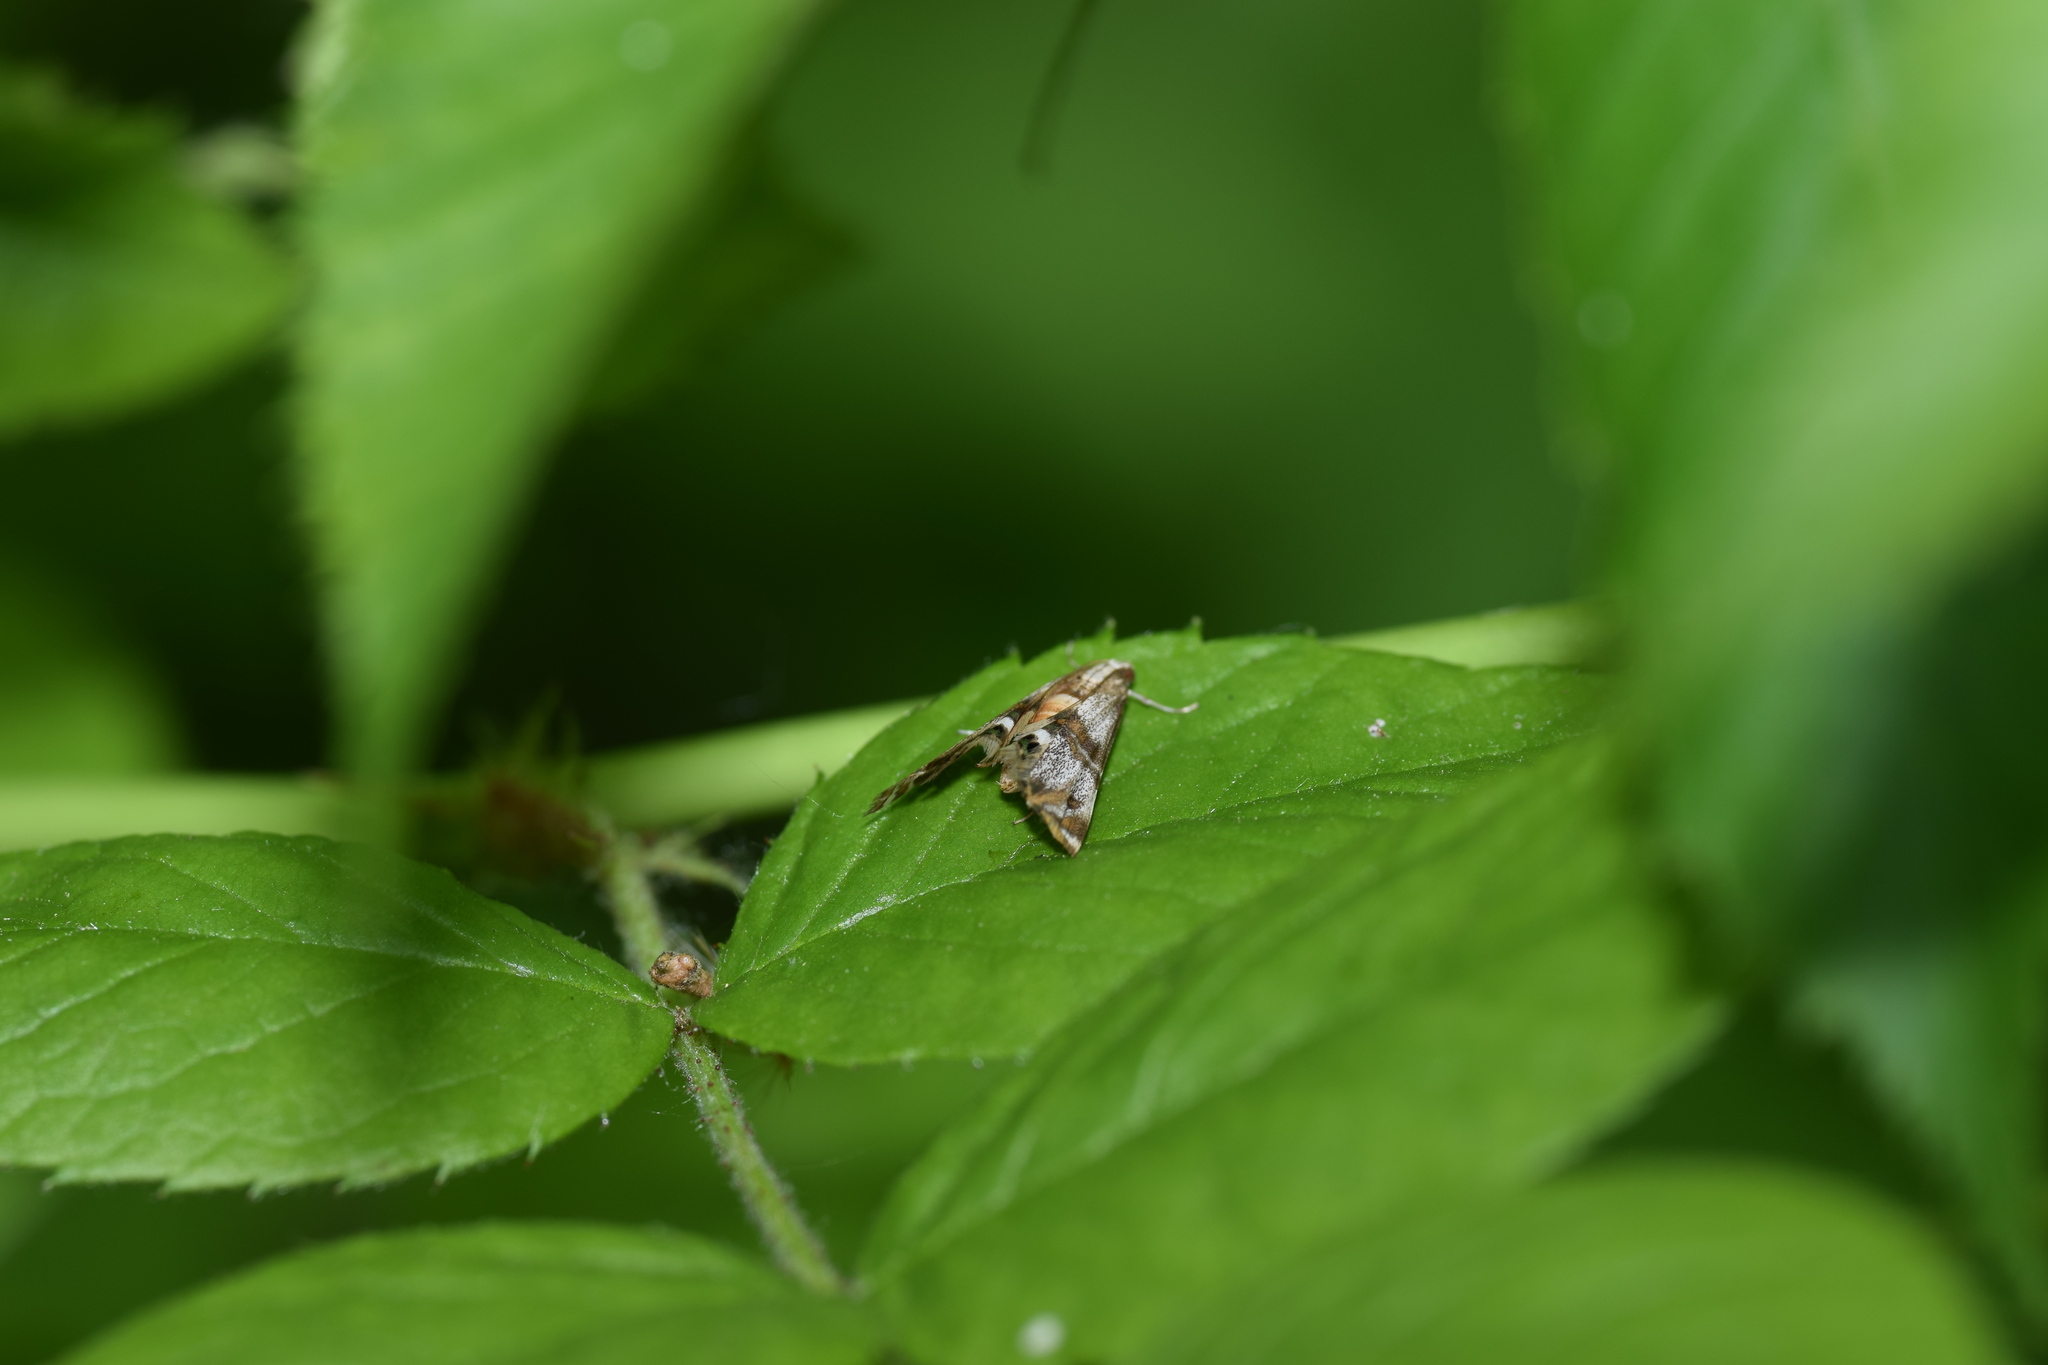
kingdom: Animalia
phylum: Arthropoda
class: Insecta
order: Lepidoptera
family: Crambidae
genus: Petrophila
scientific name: Petrophila bifascialis
